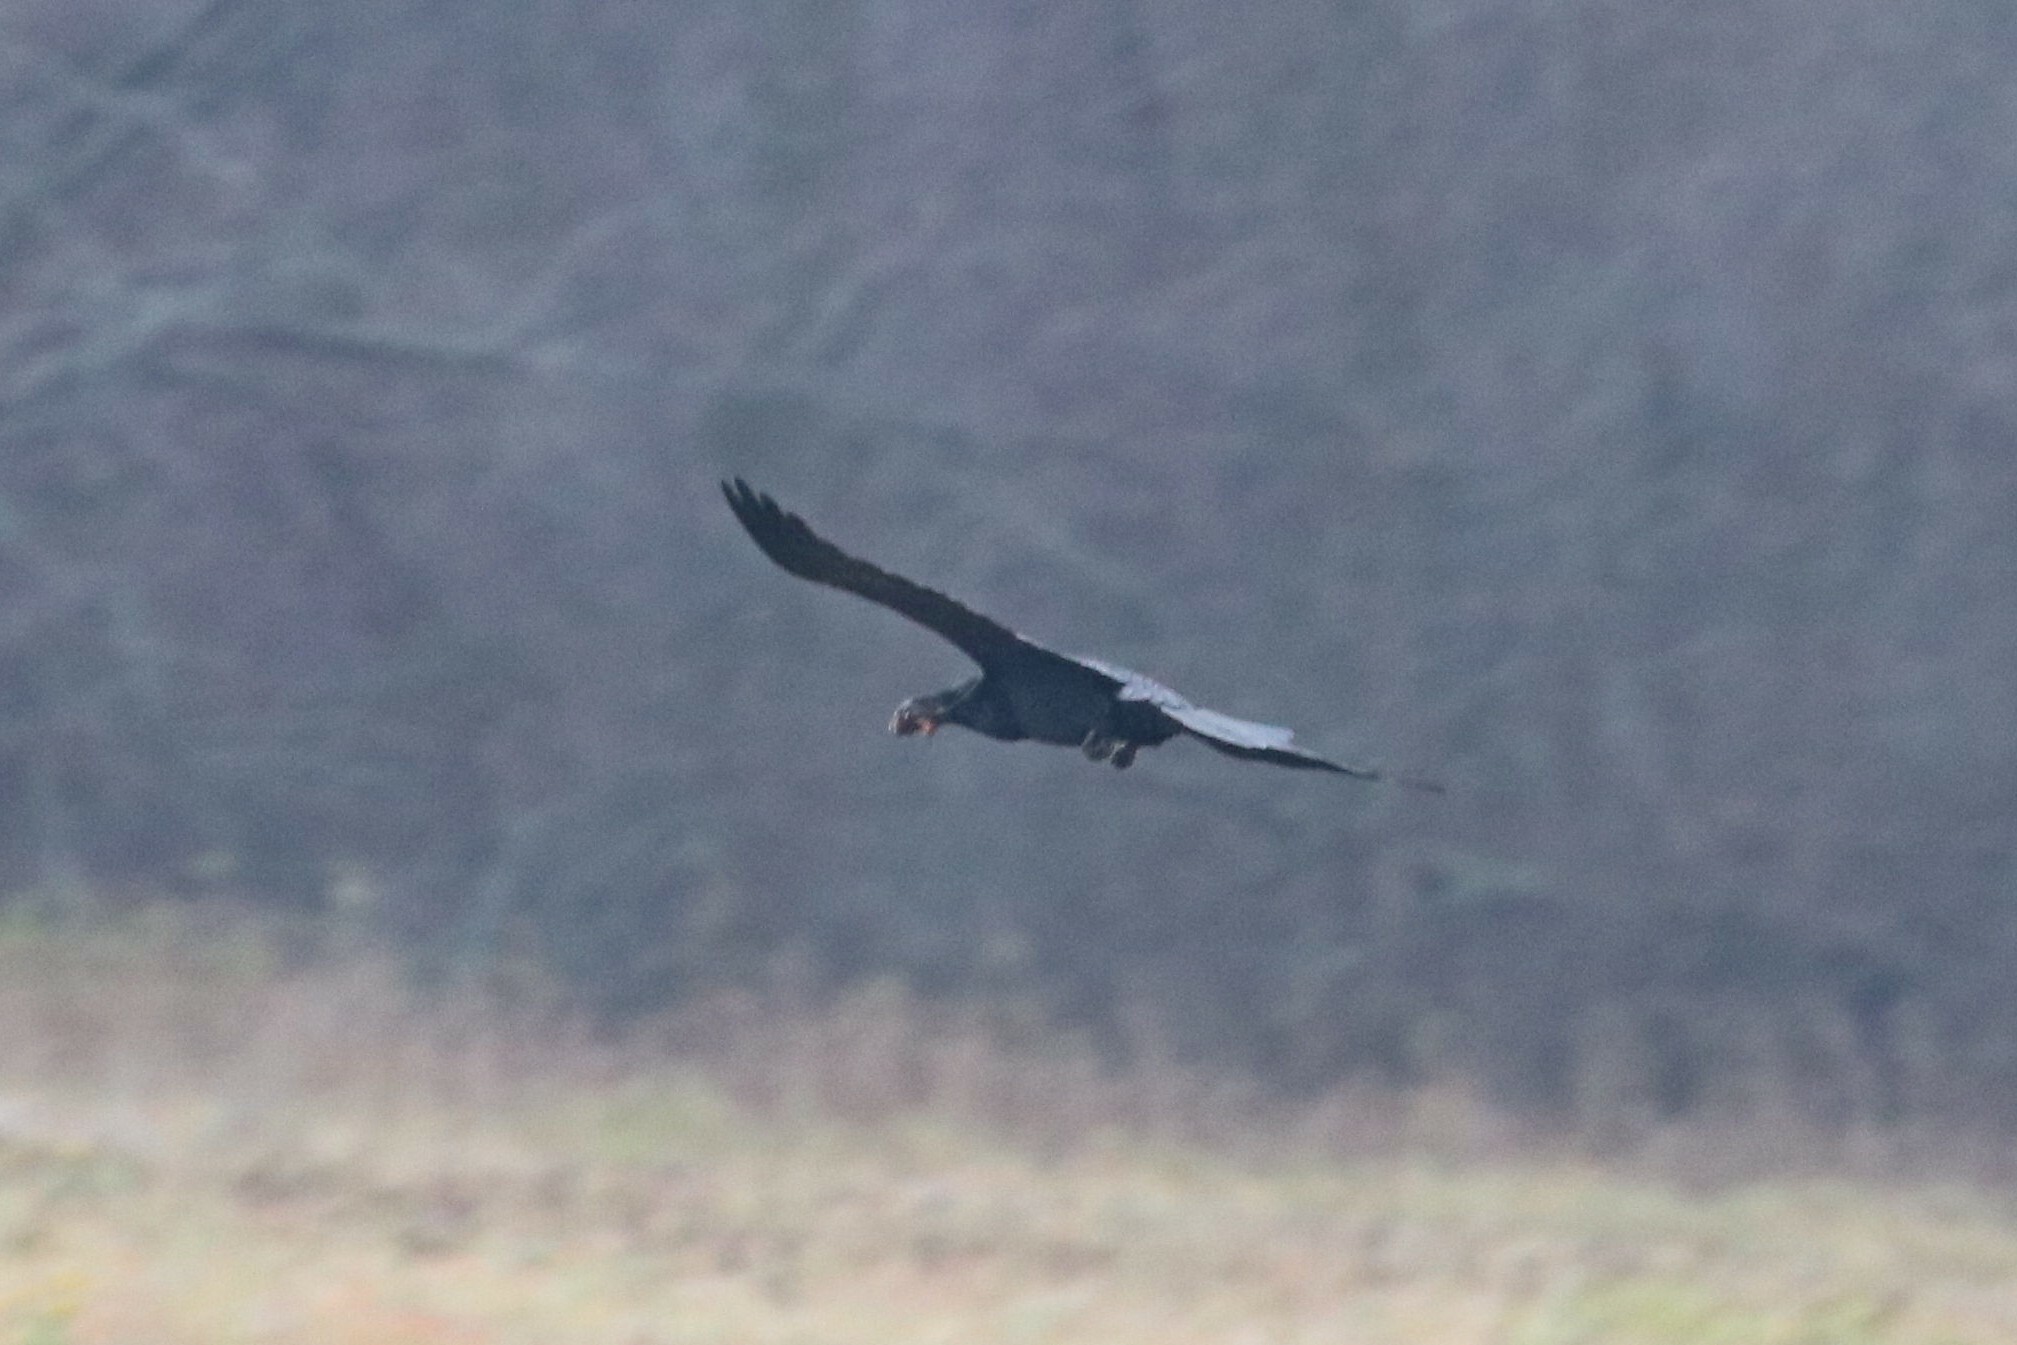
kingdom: Animalia
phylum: Chordata
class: Aves
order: Passeriformes
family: Corvidae
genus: Corvus
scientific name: Corvus corax
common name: Common raven
